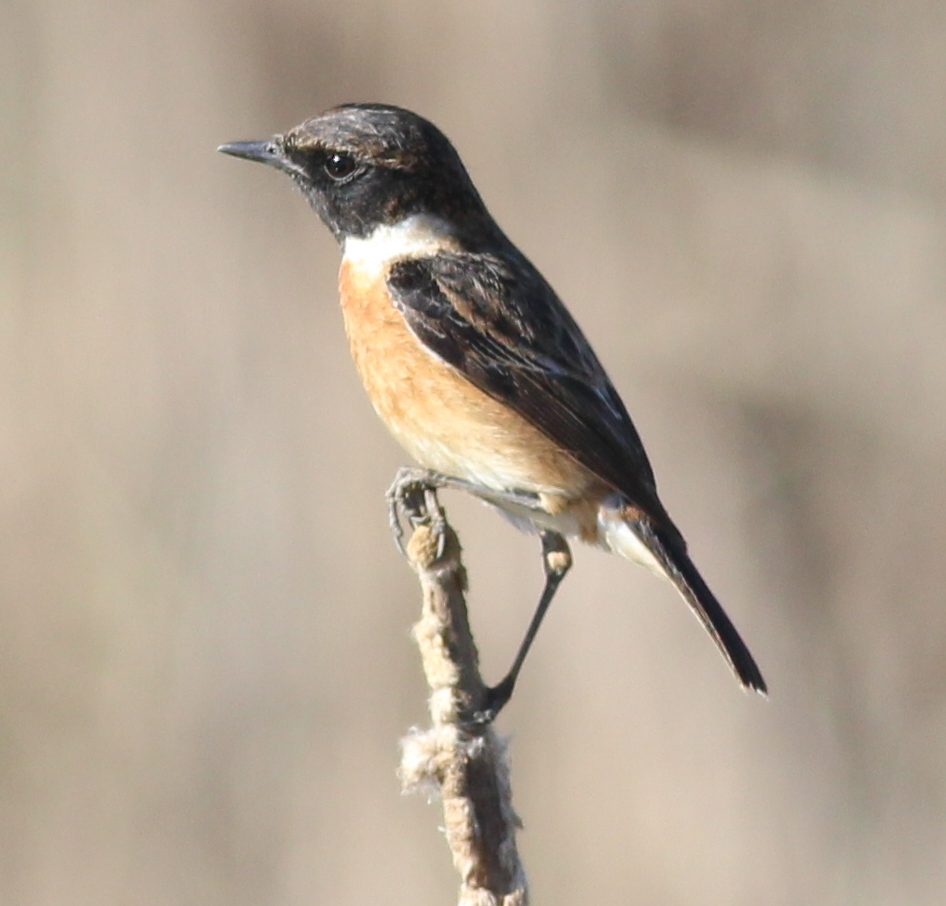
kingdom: Animalia
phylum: Chordata
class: Aves
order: Passeriformes
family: Muscicapidae
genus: Saxicola
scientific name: Saxicola rubicola
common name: European stonechat
